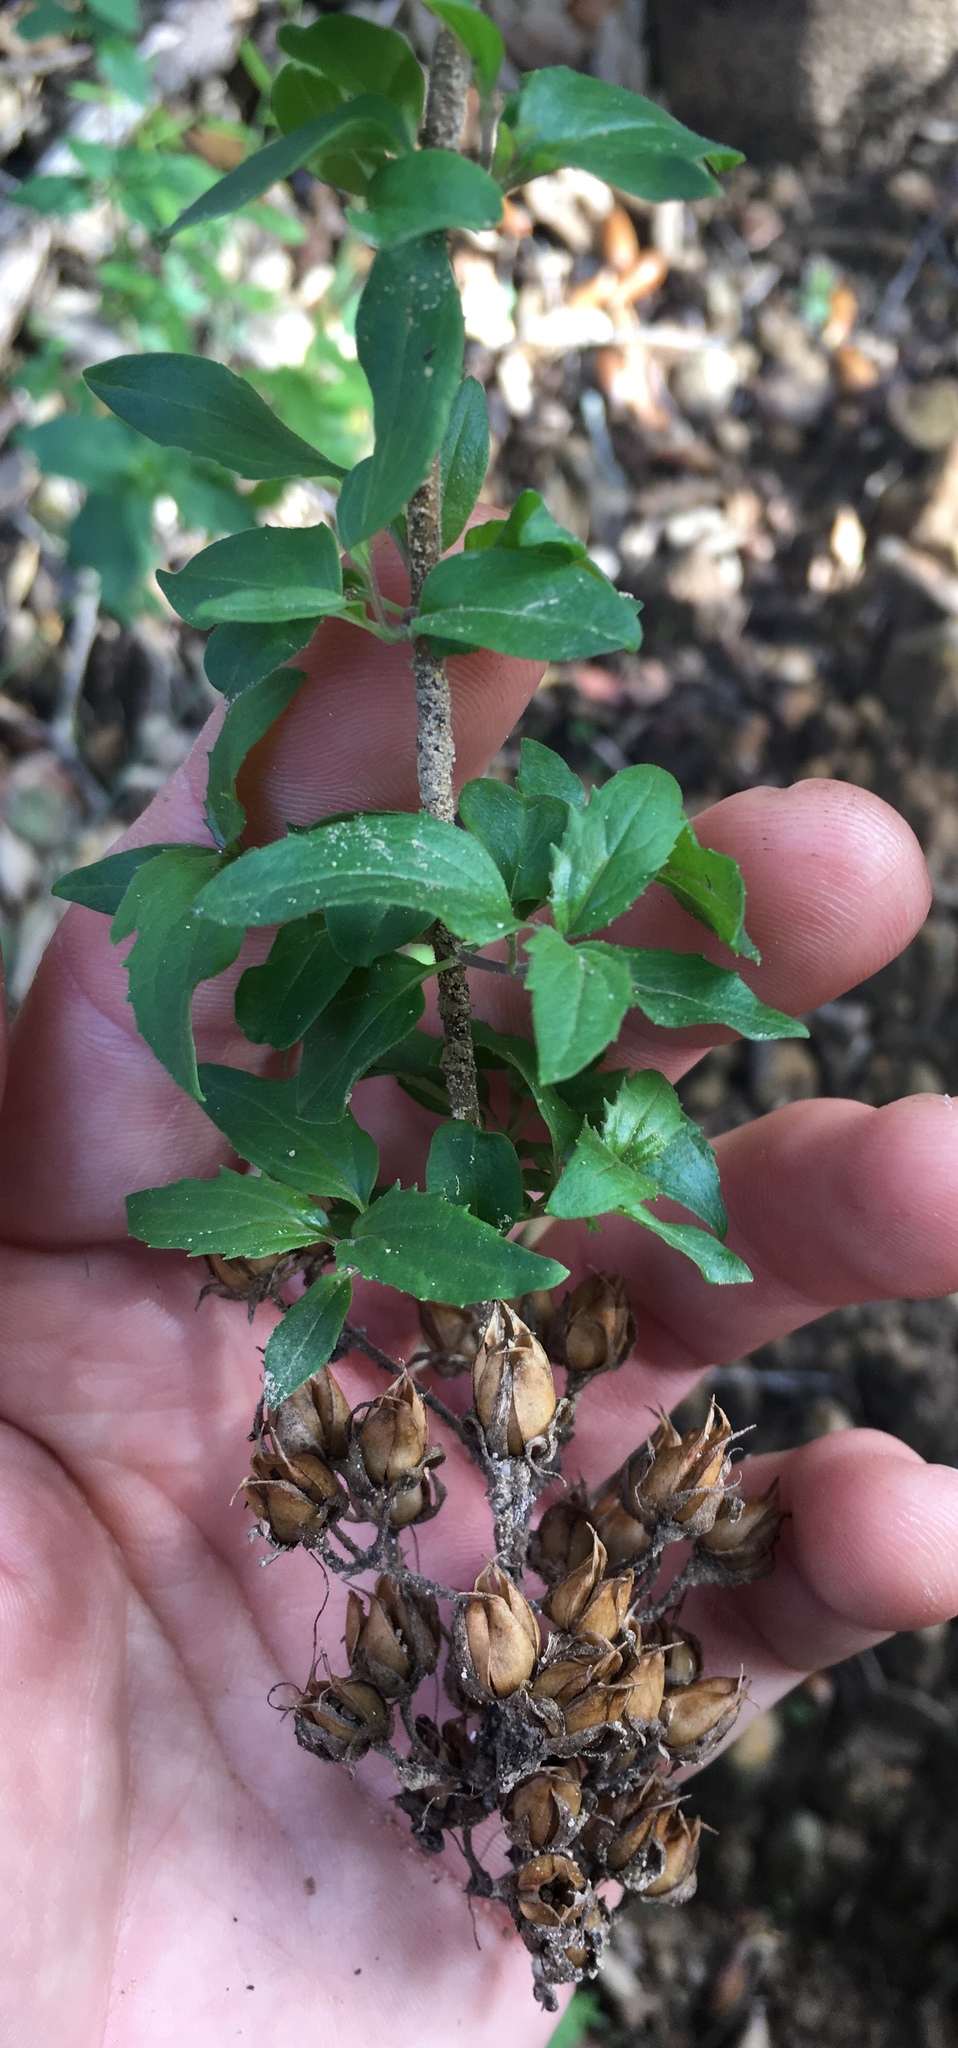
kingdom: Plantae
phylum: Tracheophyta
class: Magnoliopsida
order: Lamiales
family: Plantaginaceae
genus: Keckiella
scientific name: Keckiella cordifolia
